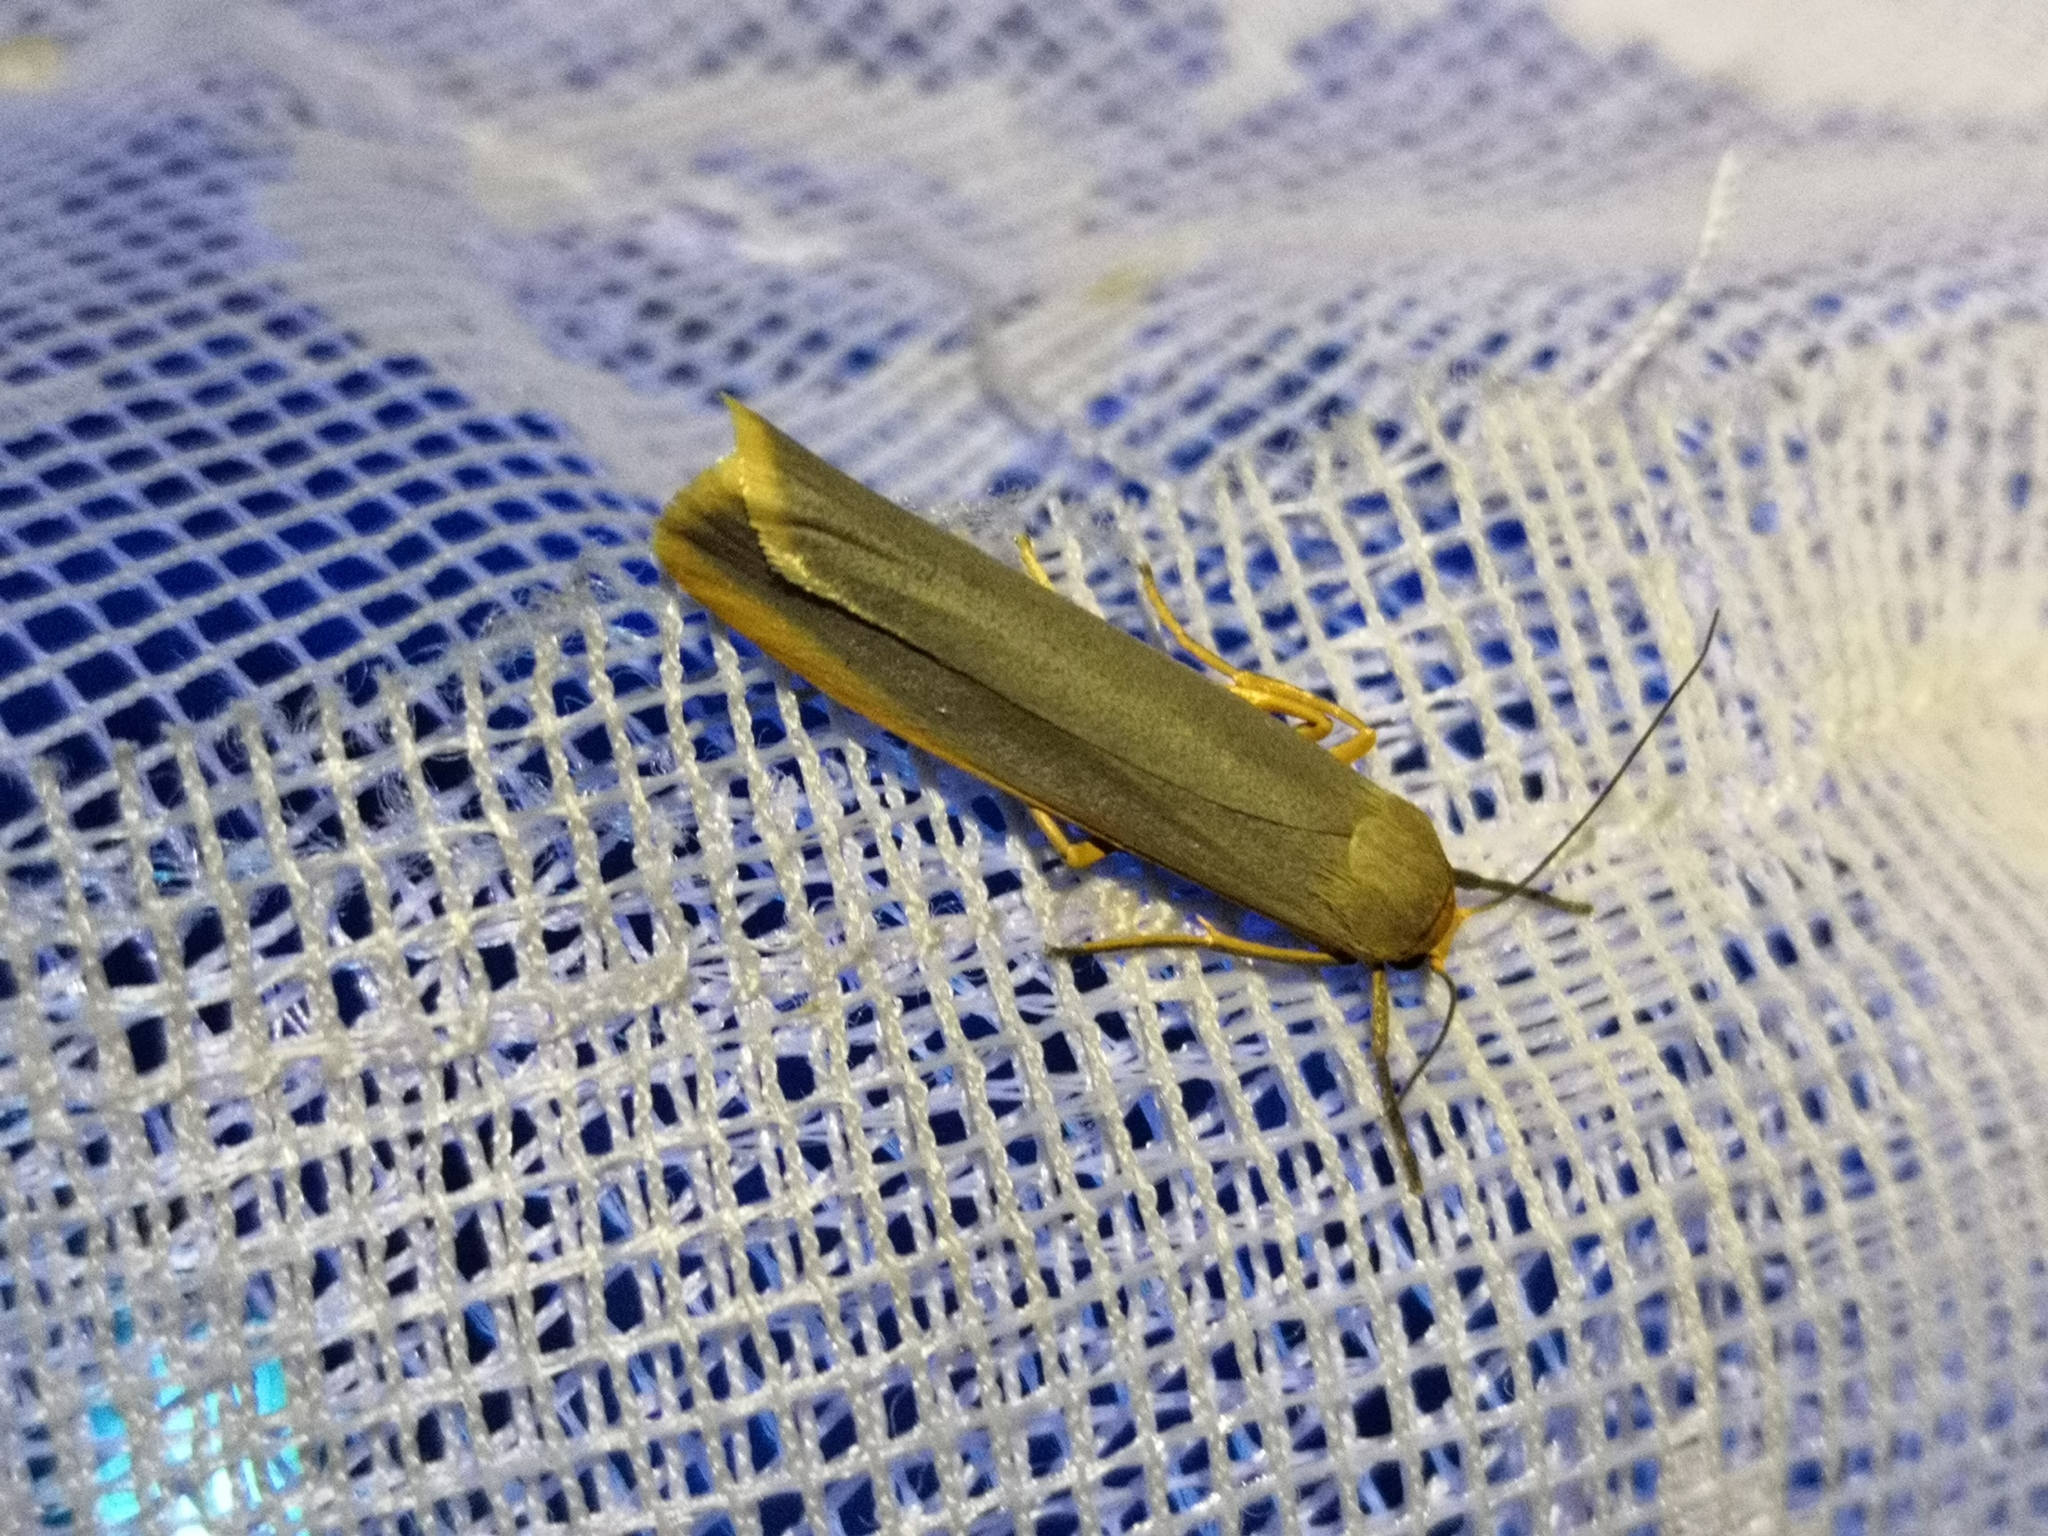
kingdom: Animalia
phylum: Arthropoda
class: Insecta
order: Lepidoptera
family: Erebidae
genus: Manulea
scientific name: Manulea complana
